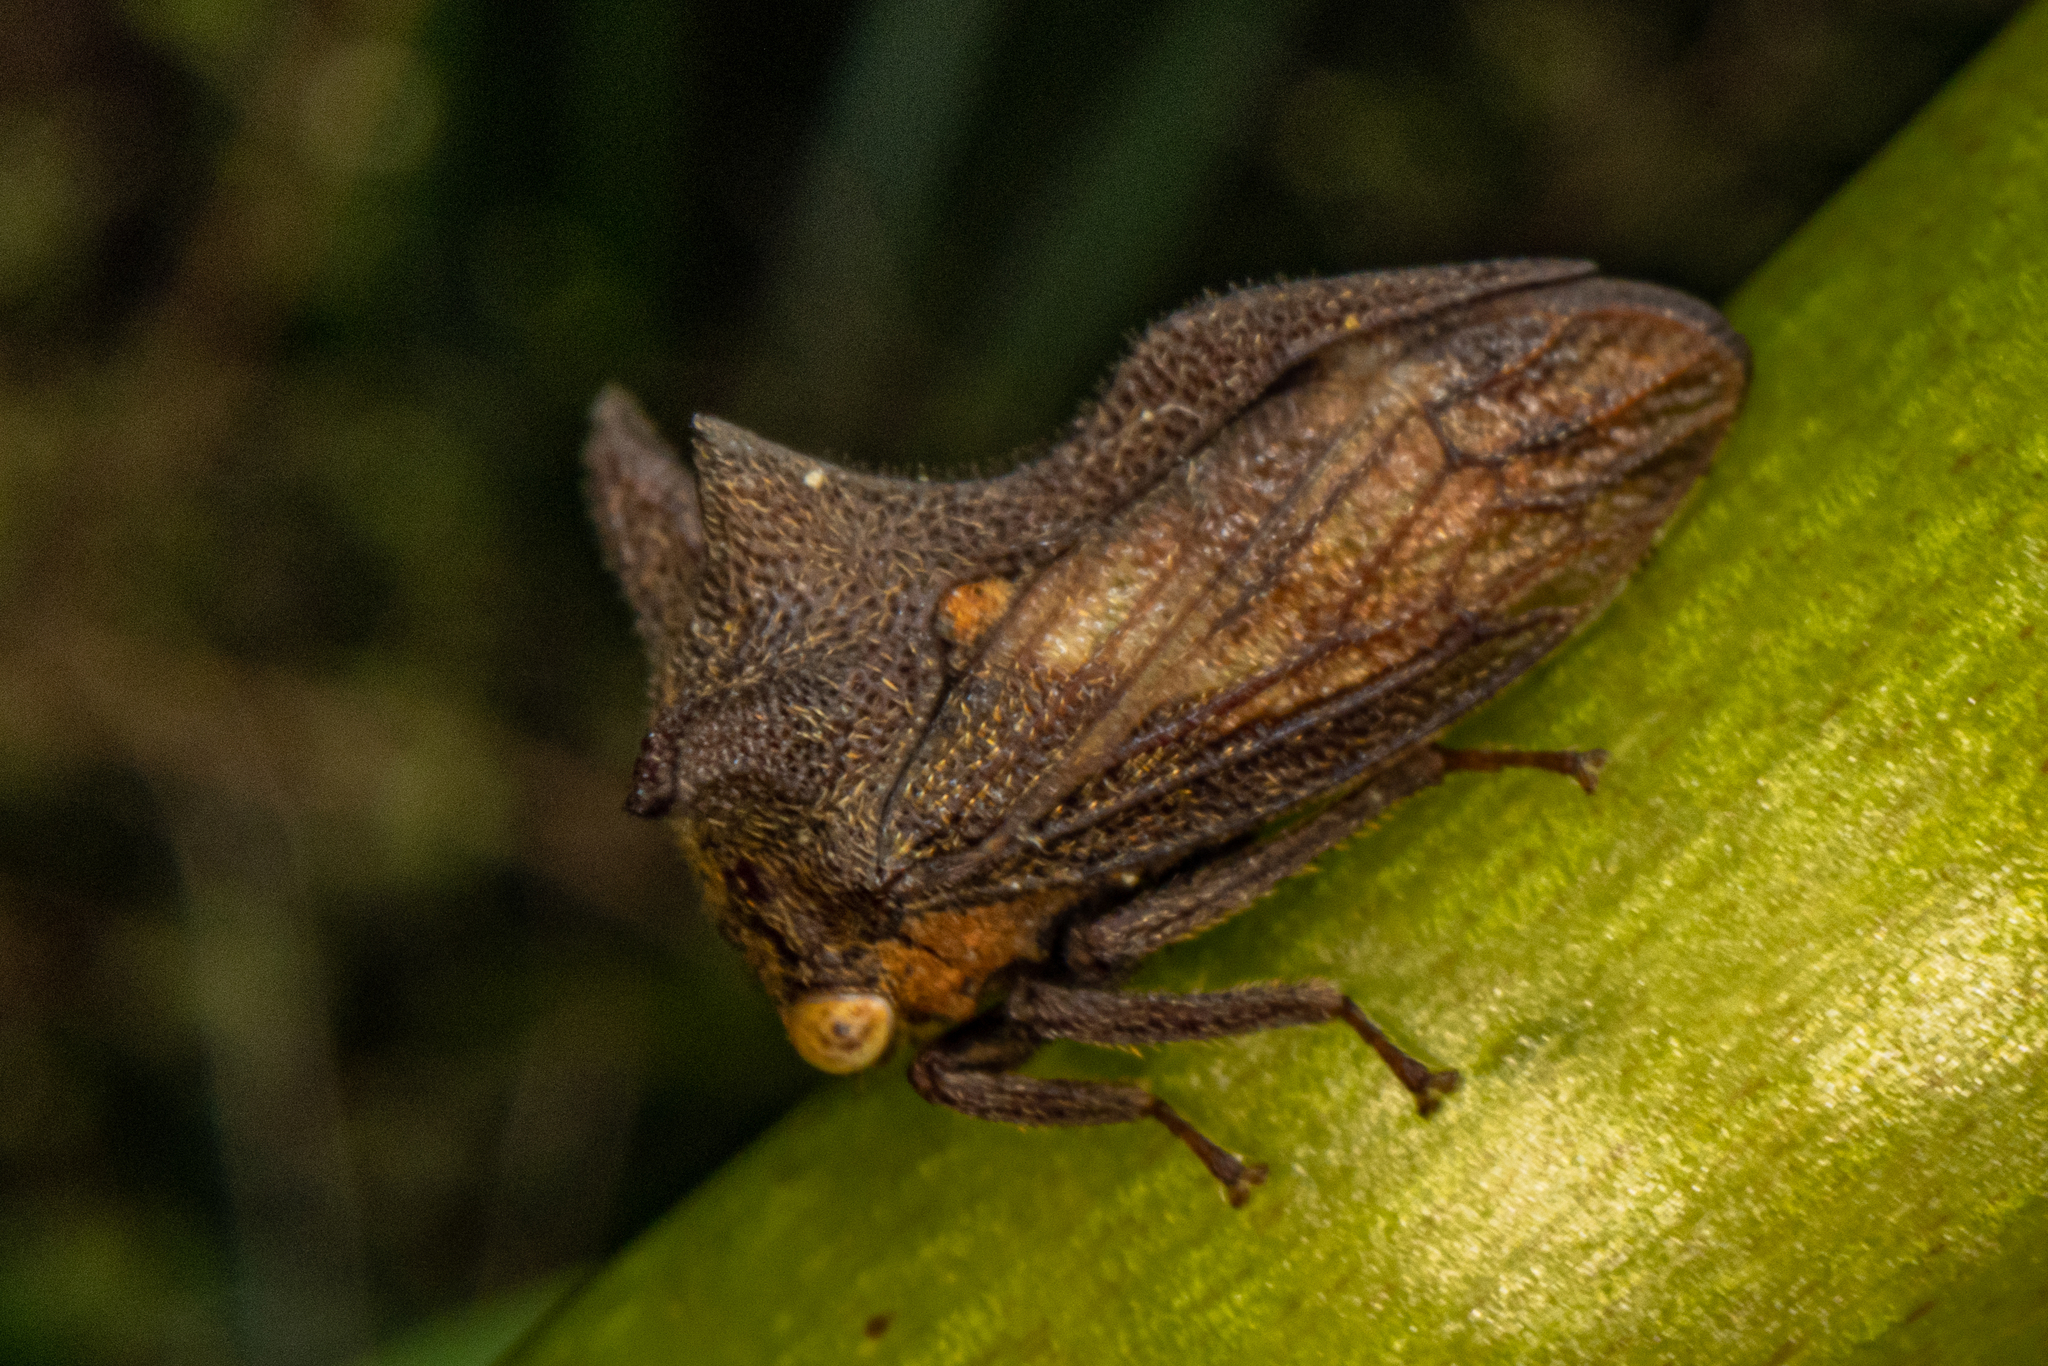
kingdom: Animalia
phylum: Arthropoda
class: Insecta
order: Hemiptera
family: Membracidae
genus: Acanthuchus
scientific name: Acanthuchus trispinifer
